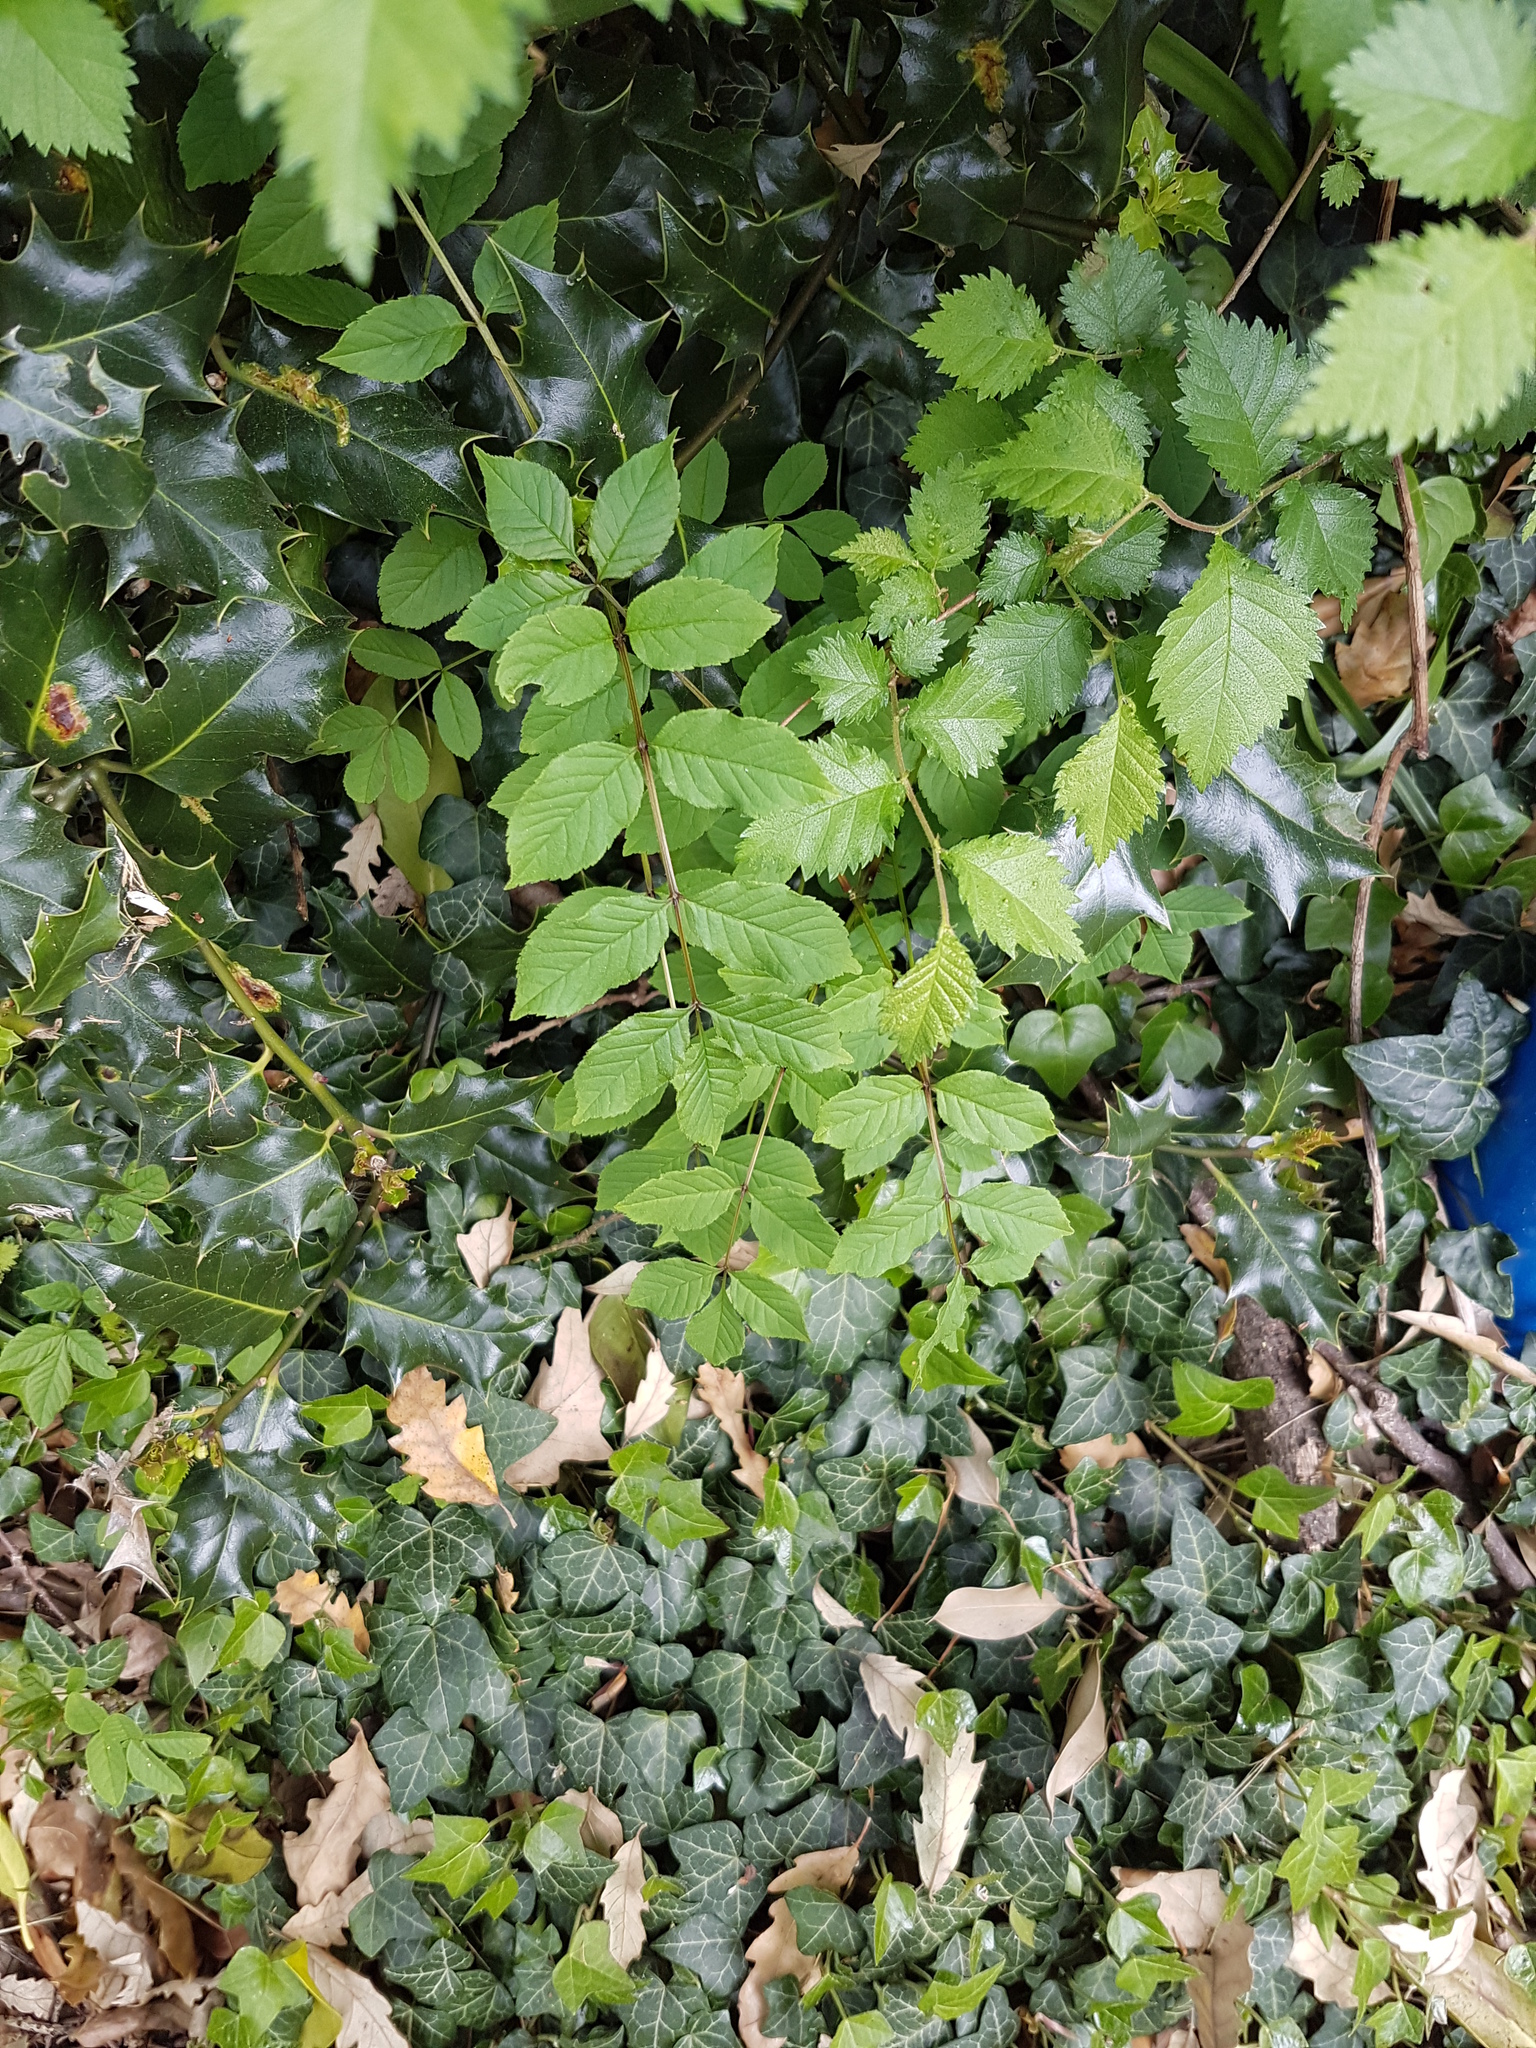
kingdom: Plantae
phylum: Tracheophyta
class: Magnoliopsida
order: Lamiales
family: Oleaceae
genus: Fraxinus
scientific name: Fraxinus excelsior
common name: European ash
